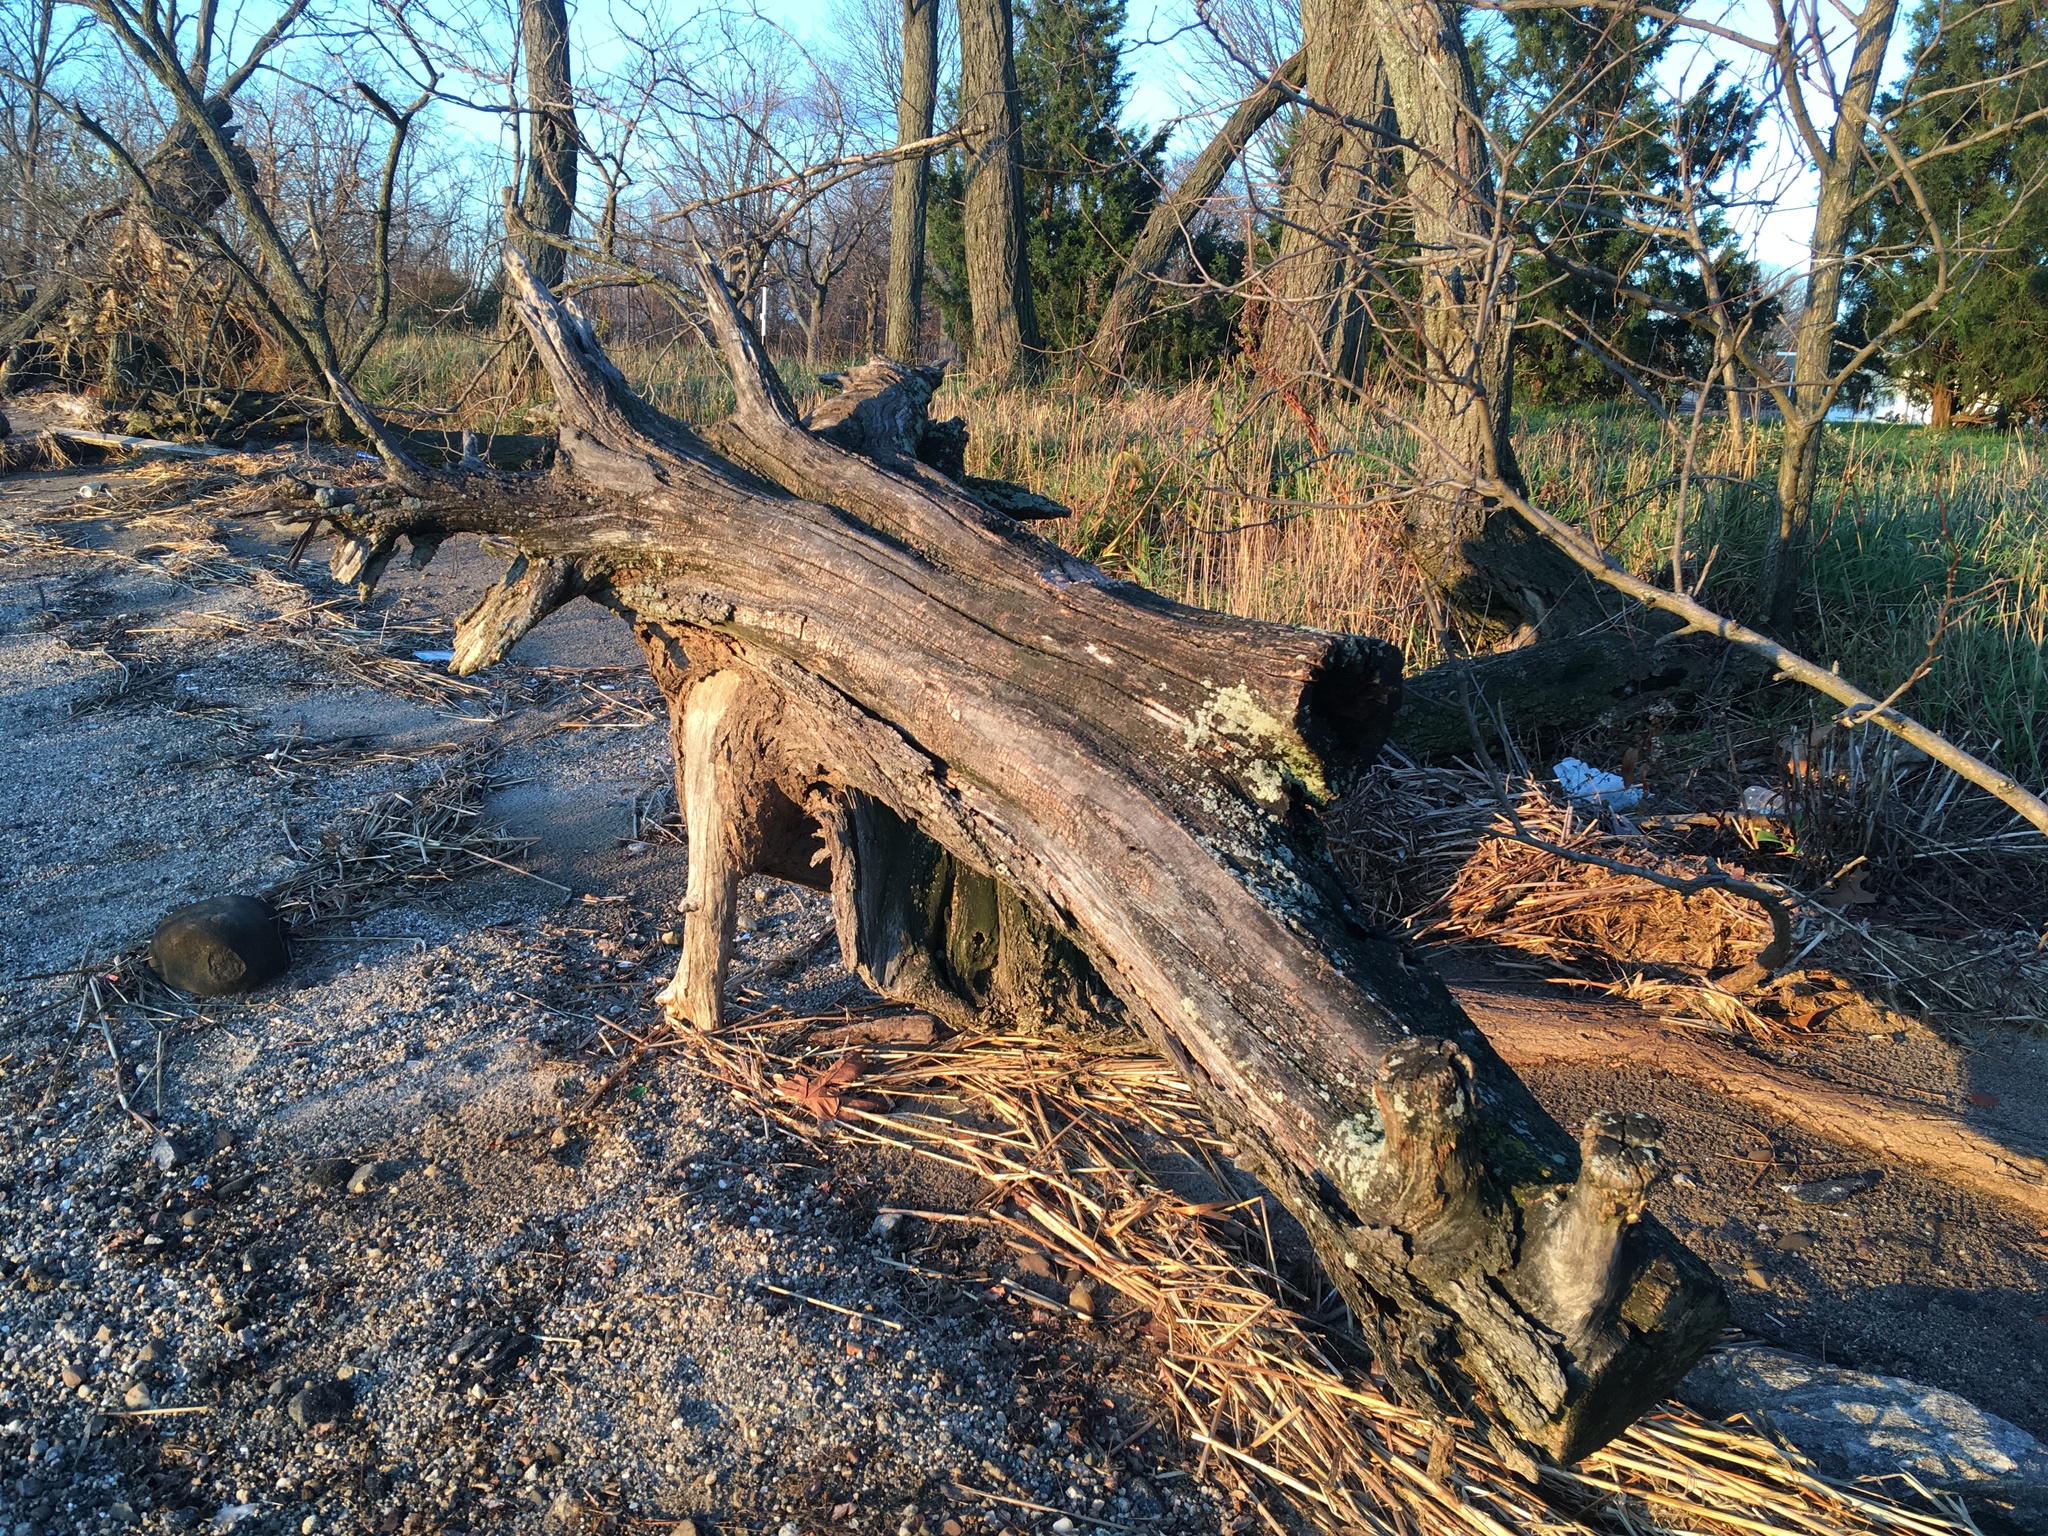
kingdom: Plantae
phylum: Tracheophyta
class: Pinopsida
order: Pinales
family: Cupressaceae
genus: Juniperus
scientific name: Juniperus virginiana
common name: Red juniper
